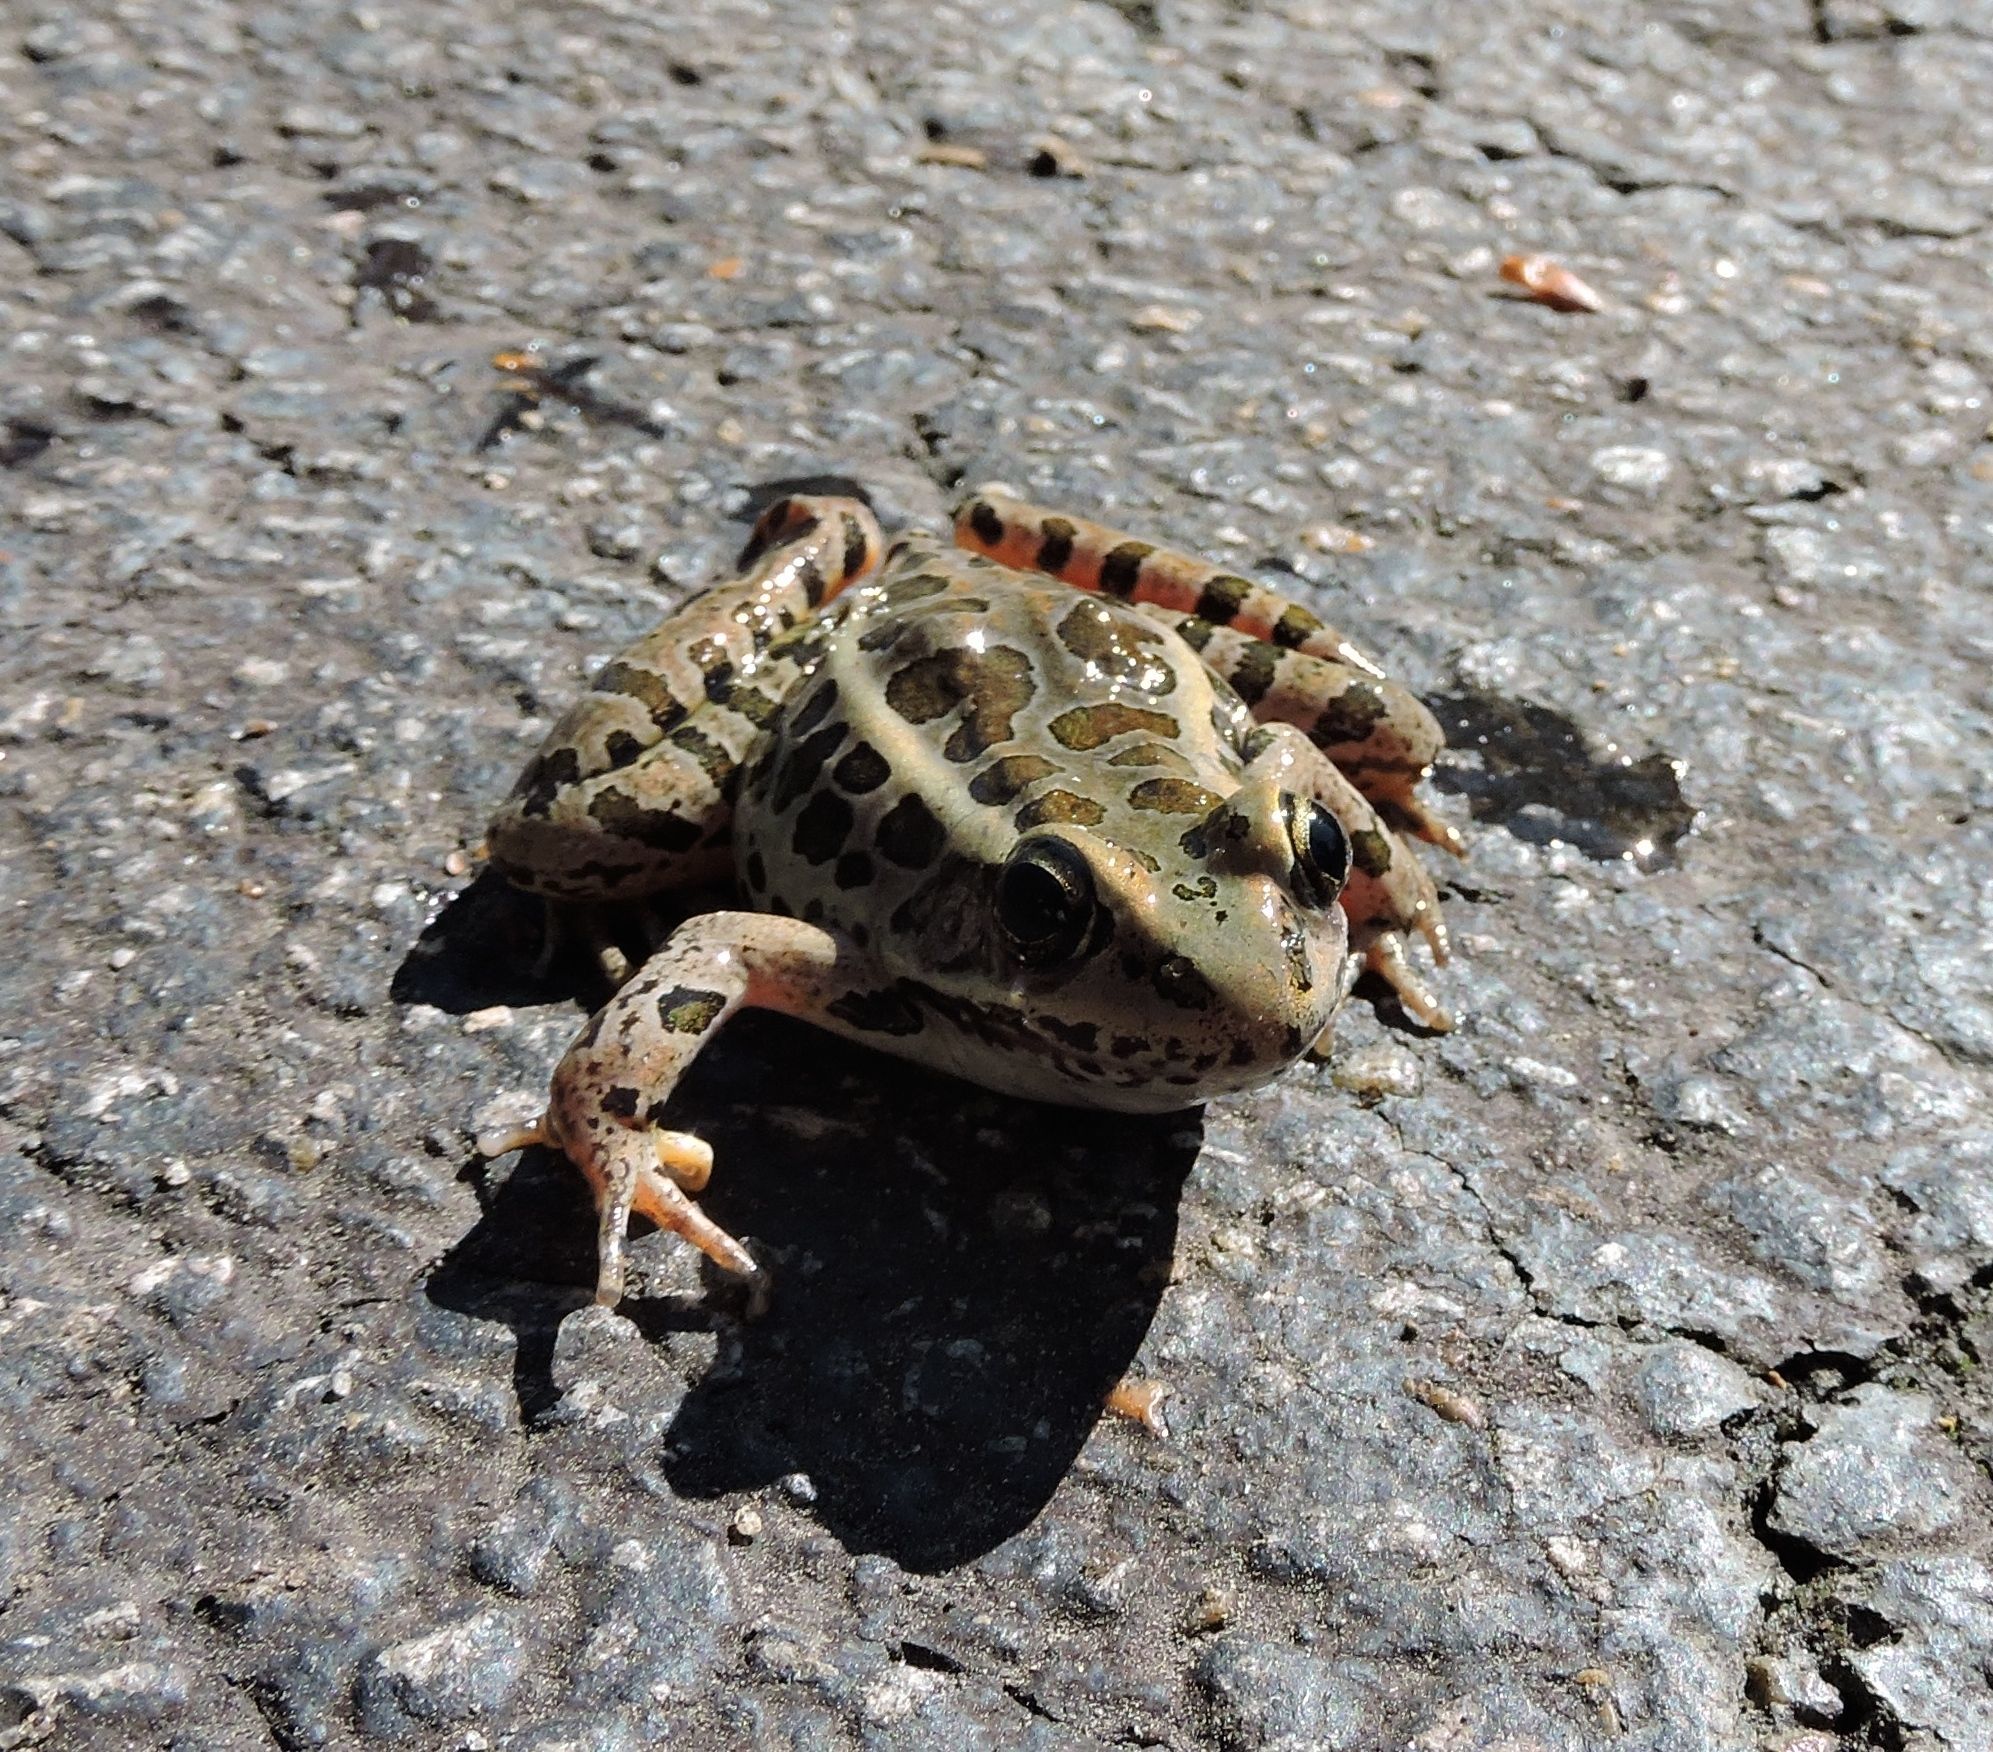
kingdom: Animalia
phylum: Chordata
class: Amphibia
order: Anura
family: Ranidae
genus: Lithobates
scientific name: Lithobates palustris
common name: Pickerel frog
